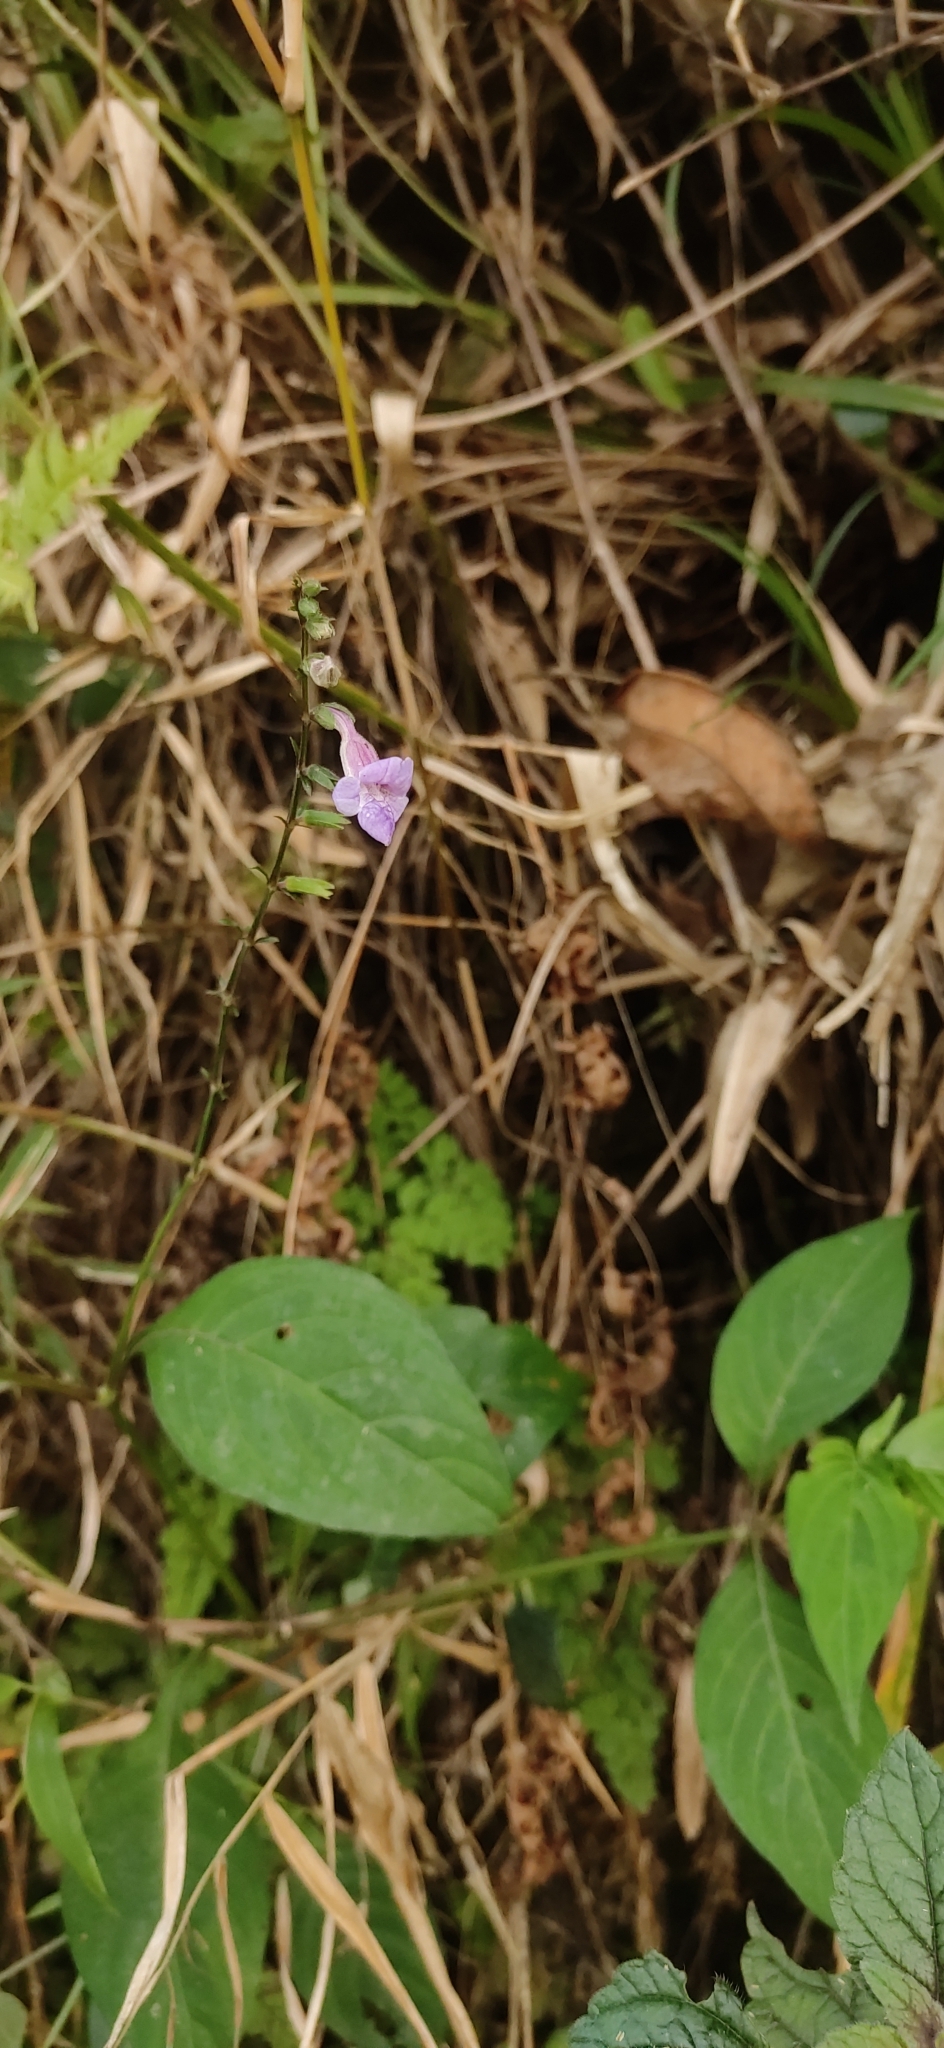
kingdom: Plantae
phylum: Tracheophyta
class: Magnoliopsida
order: Lamiales
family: Acanthaceae
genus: Asystasia
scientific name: Asystasia dalzelliana
